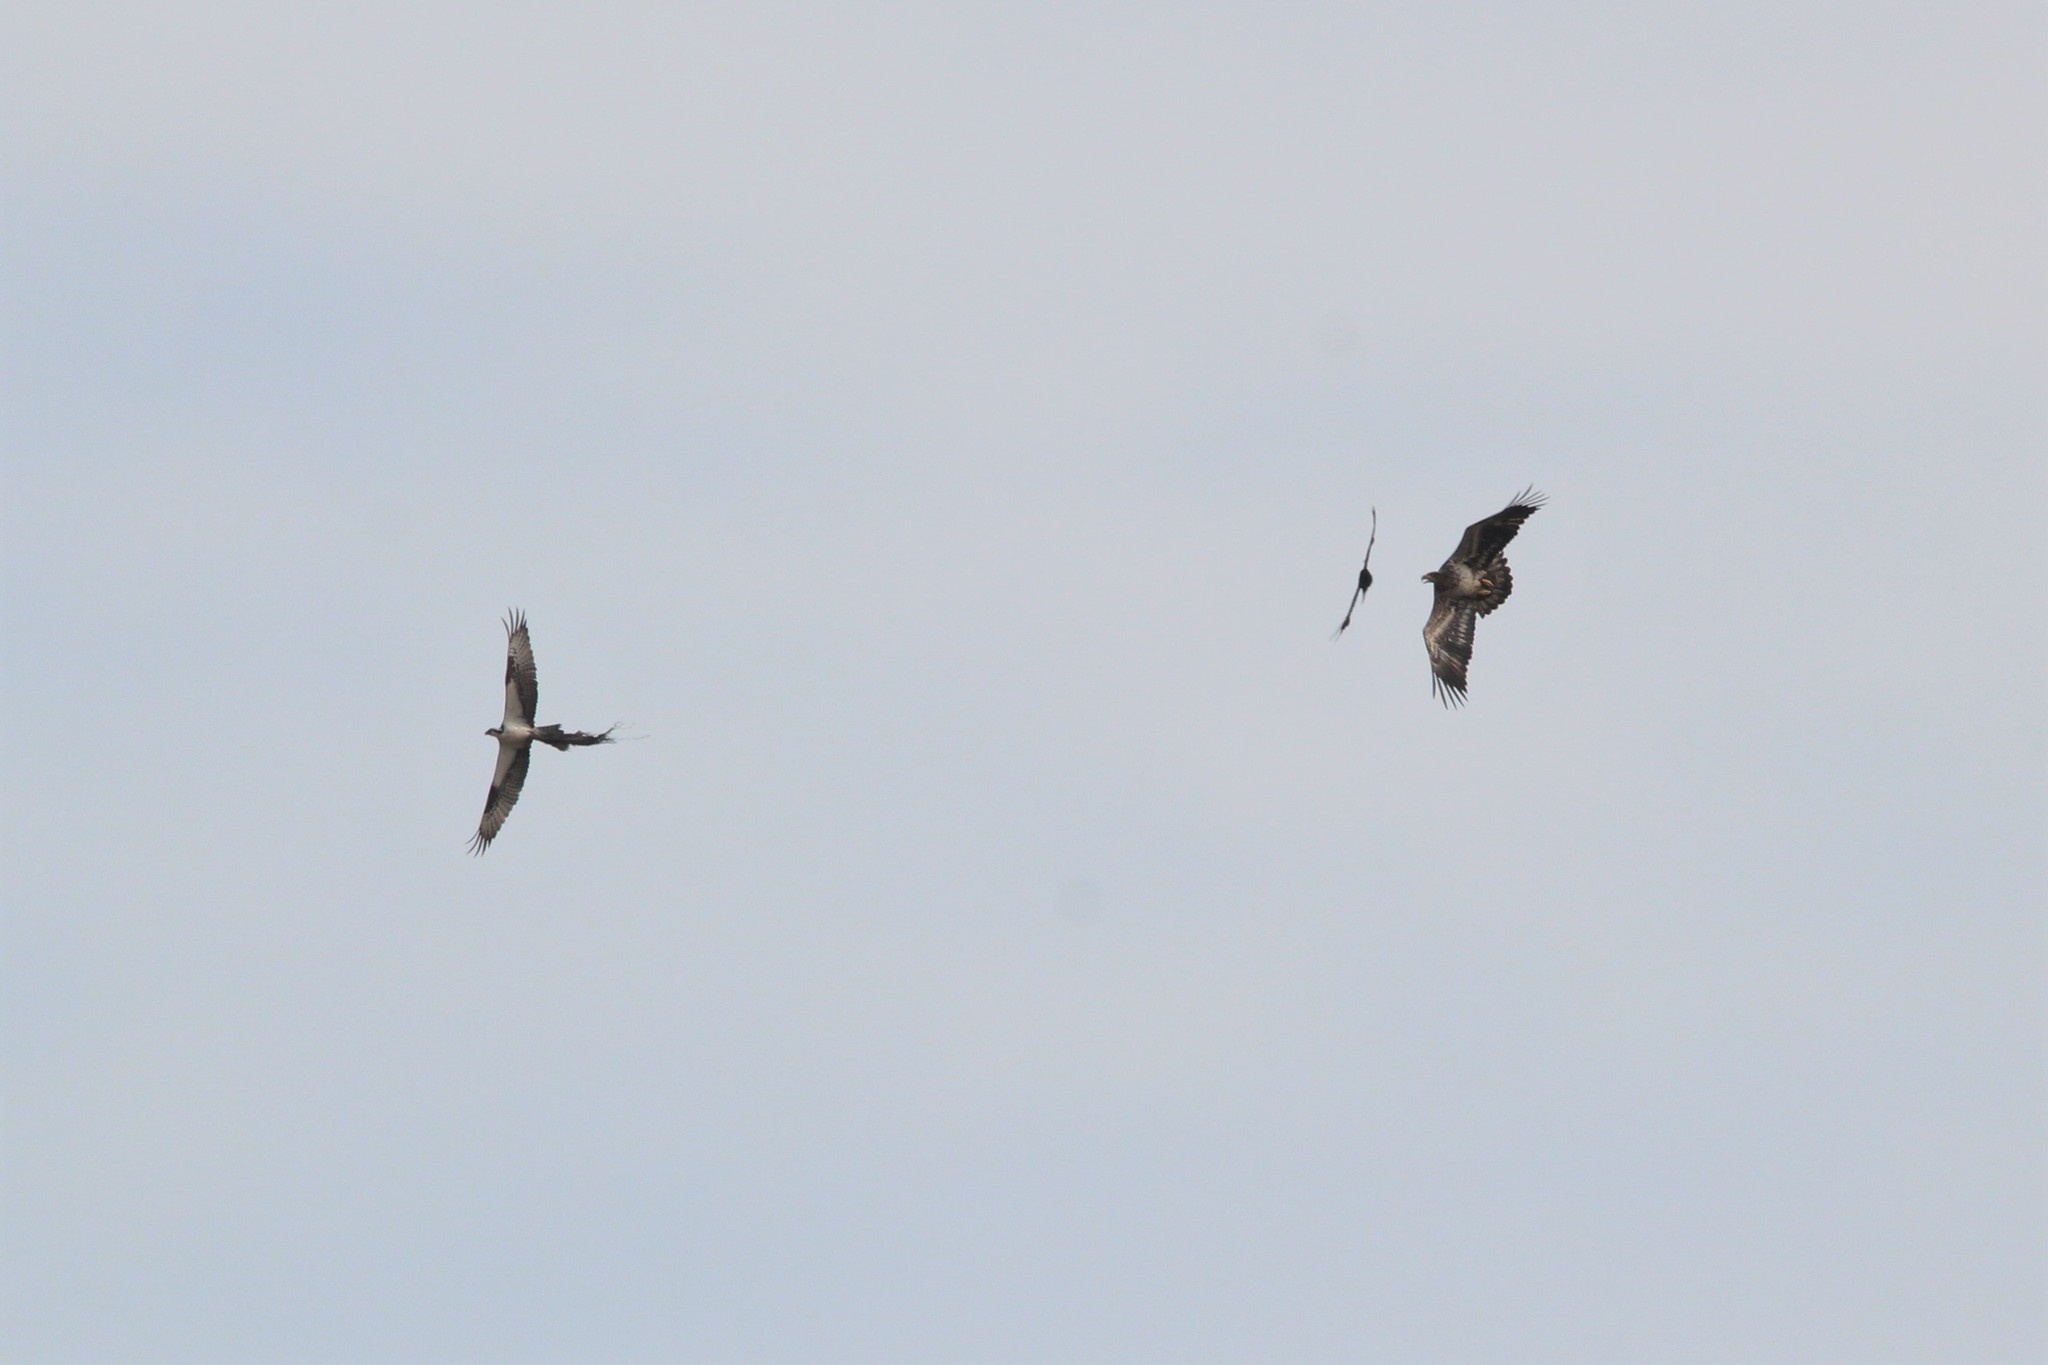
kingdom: Animalia
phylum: Chordata
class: Aves
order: Accipitriformes
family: Pandionidae
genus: Pandion
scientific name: Pandion haliaetus
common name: Osprey
